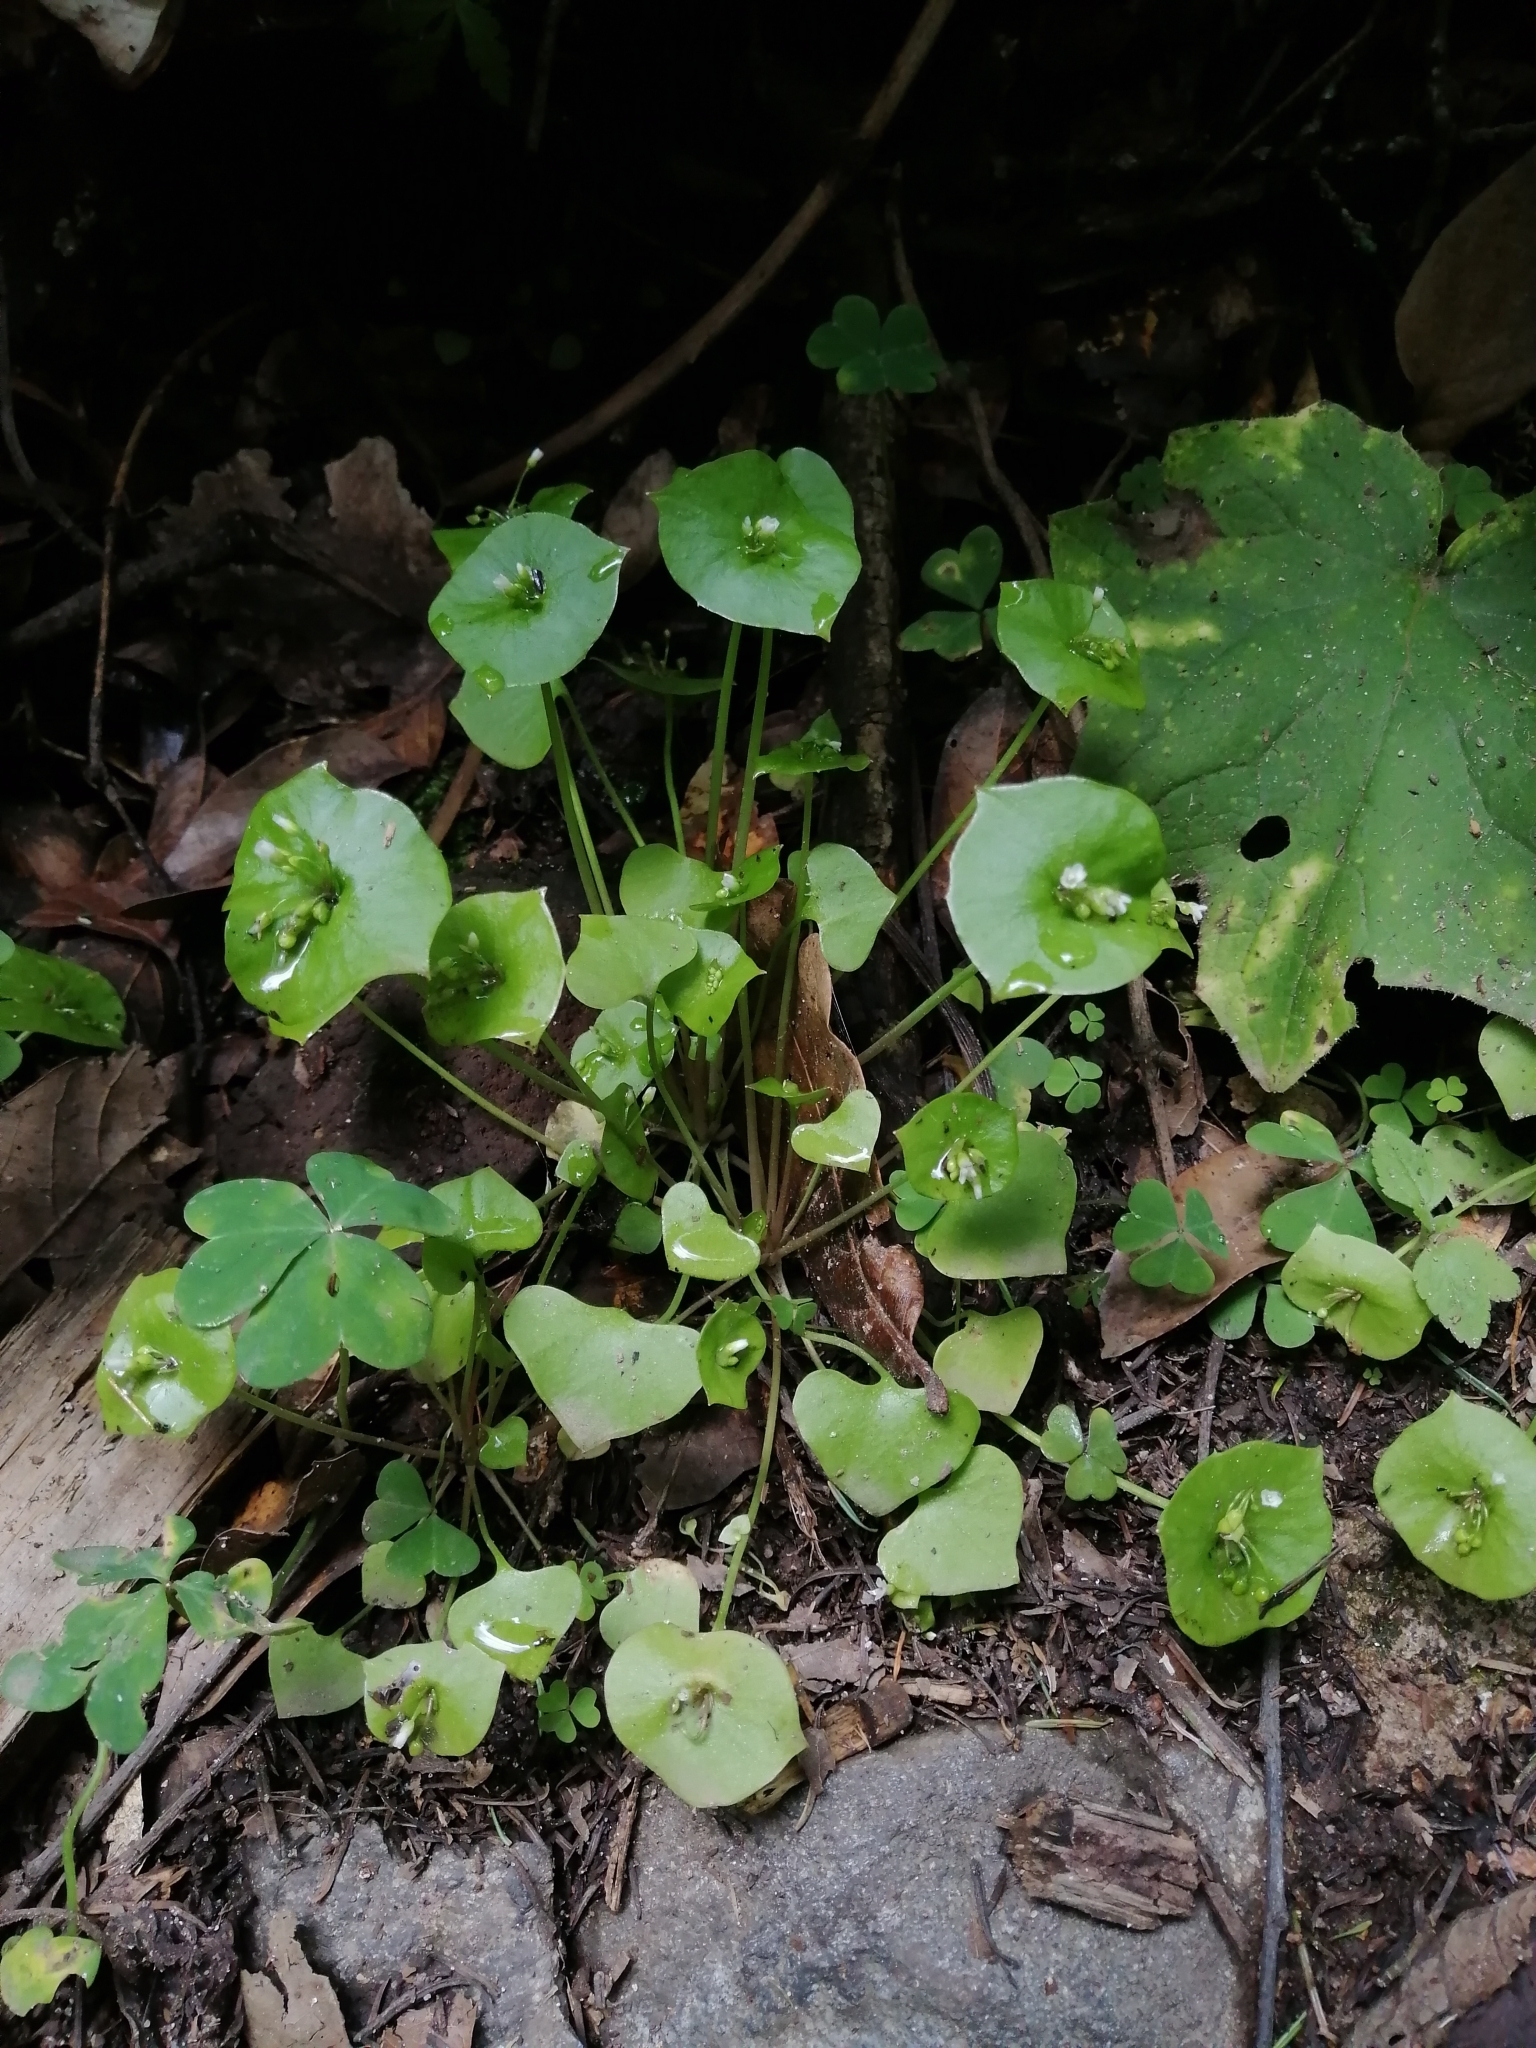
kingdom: Plantae
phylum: Tracheophyta
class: Magnoliopsida
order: Caryophyllales
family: Montiaceae
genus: Claytonia
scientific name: Claytonia perfoliata
